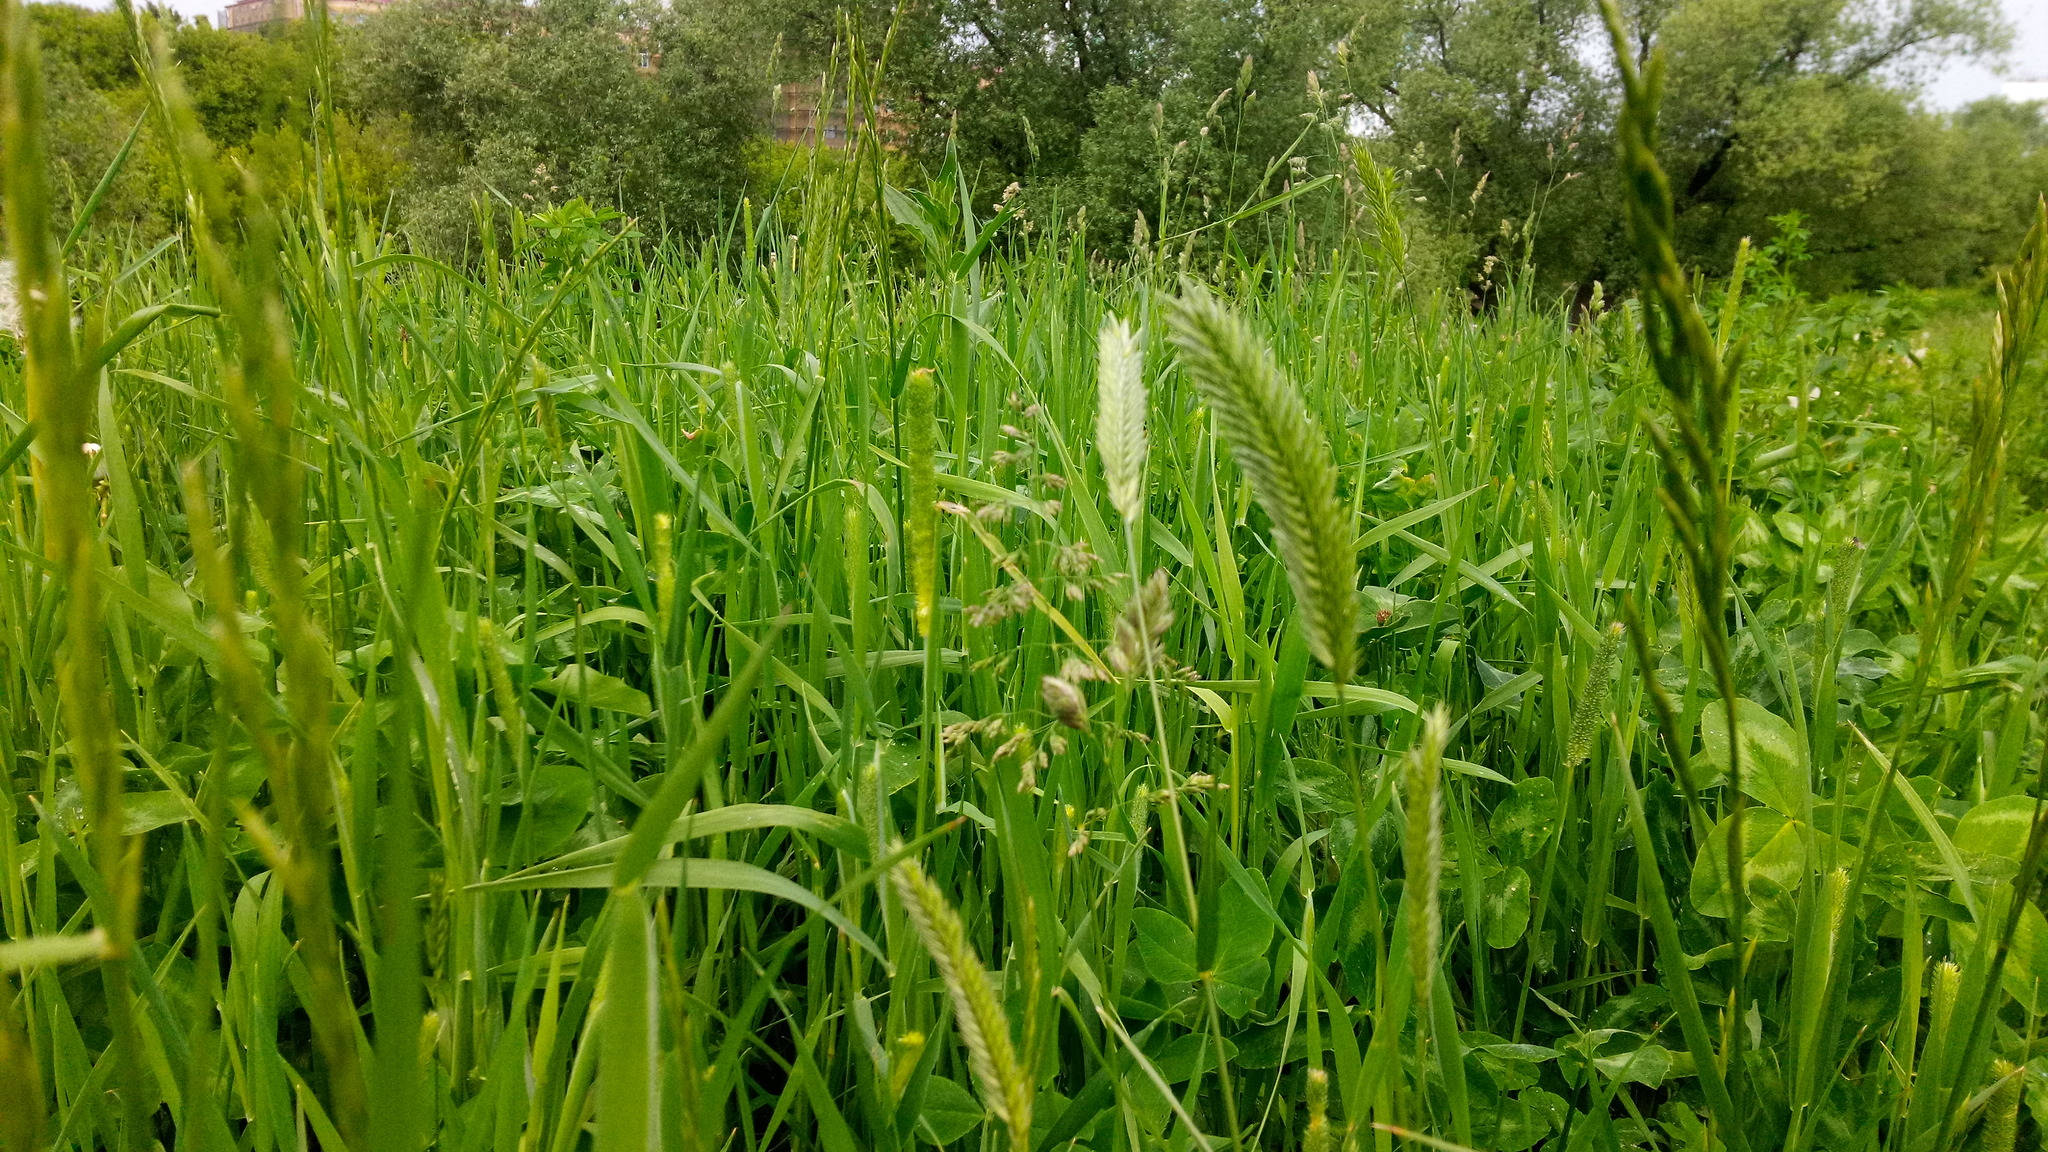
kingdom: Plantae
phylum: Tracheophyta
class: Liliopsida
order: Poales
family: Poaceae
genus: Agropyron
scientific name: Agropyron cristatum
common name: Crested wheatgrass
